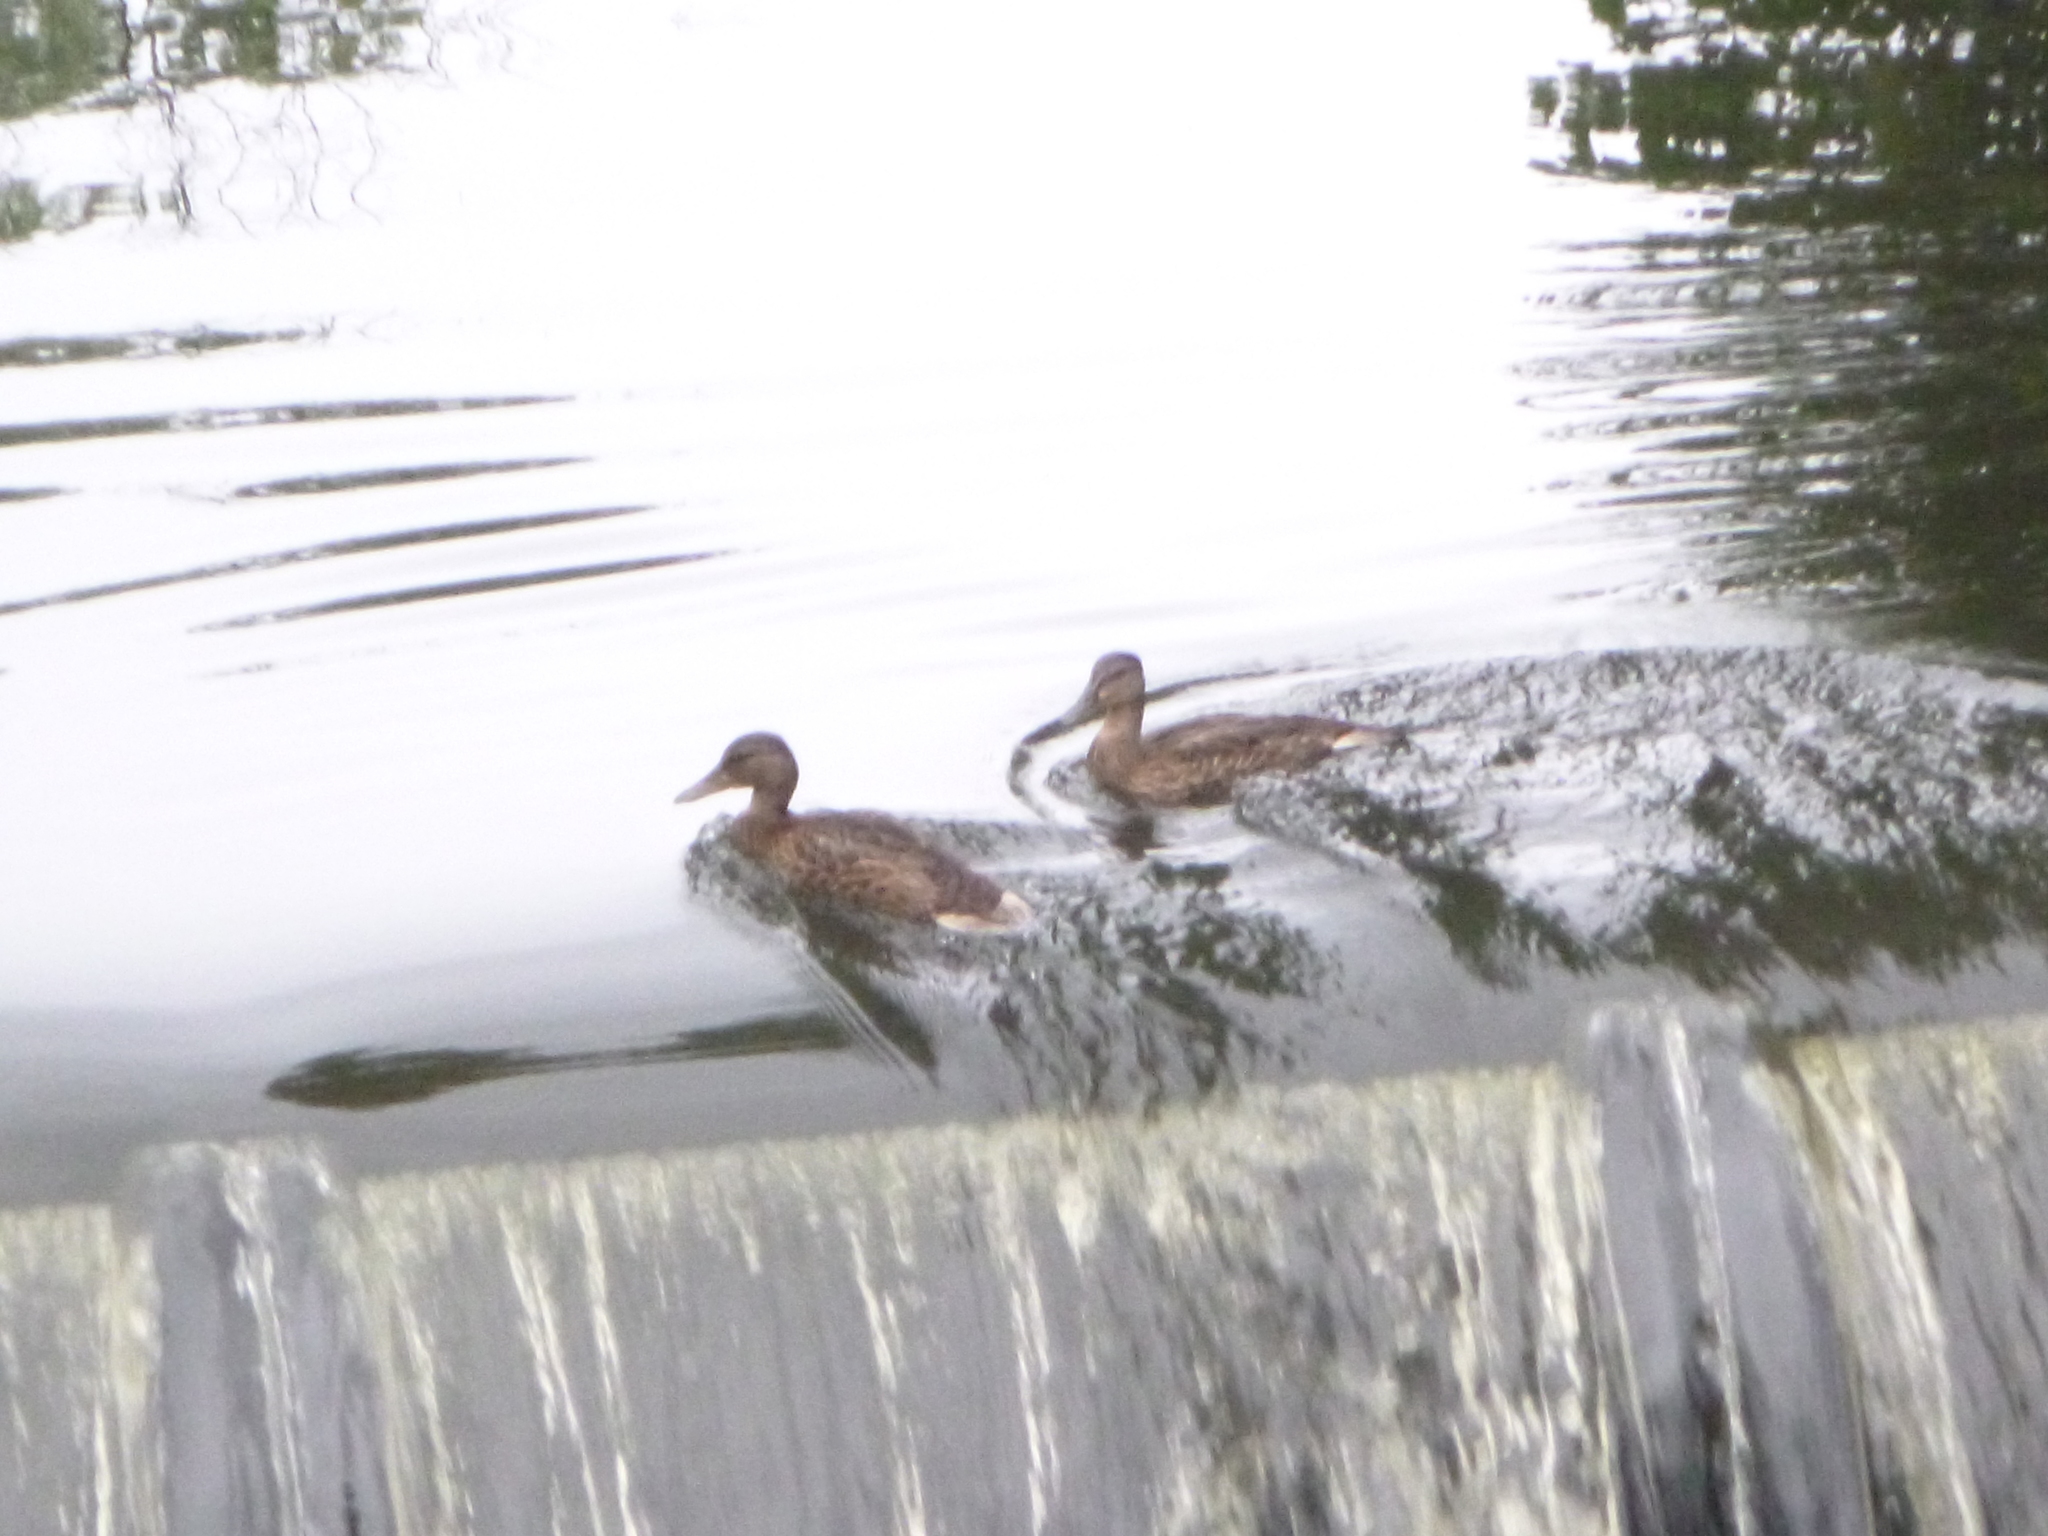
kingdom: Animalia
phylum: Chordata
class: Aves
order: Anseriformes
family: Anatidae
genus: Anas
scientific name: Anas platyrhynchos
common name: Mallard
